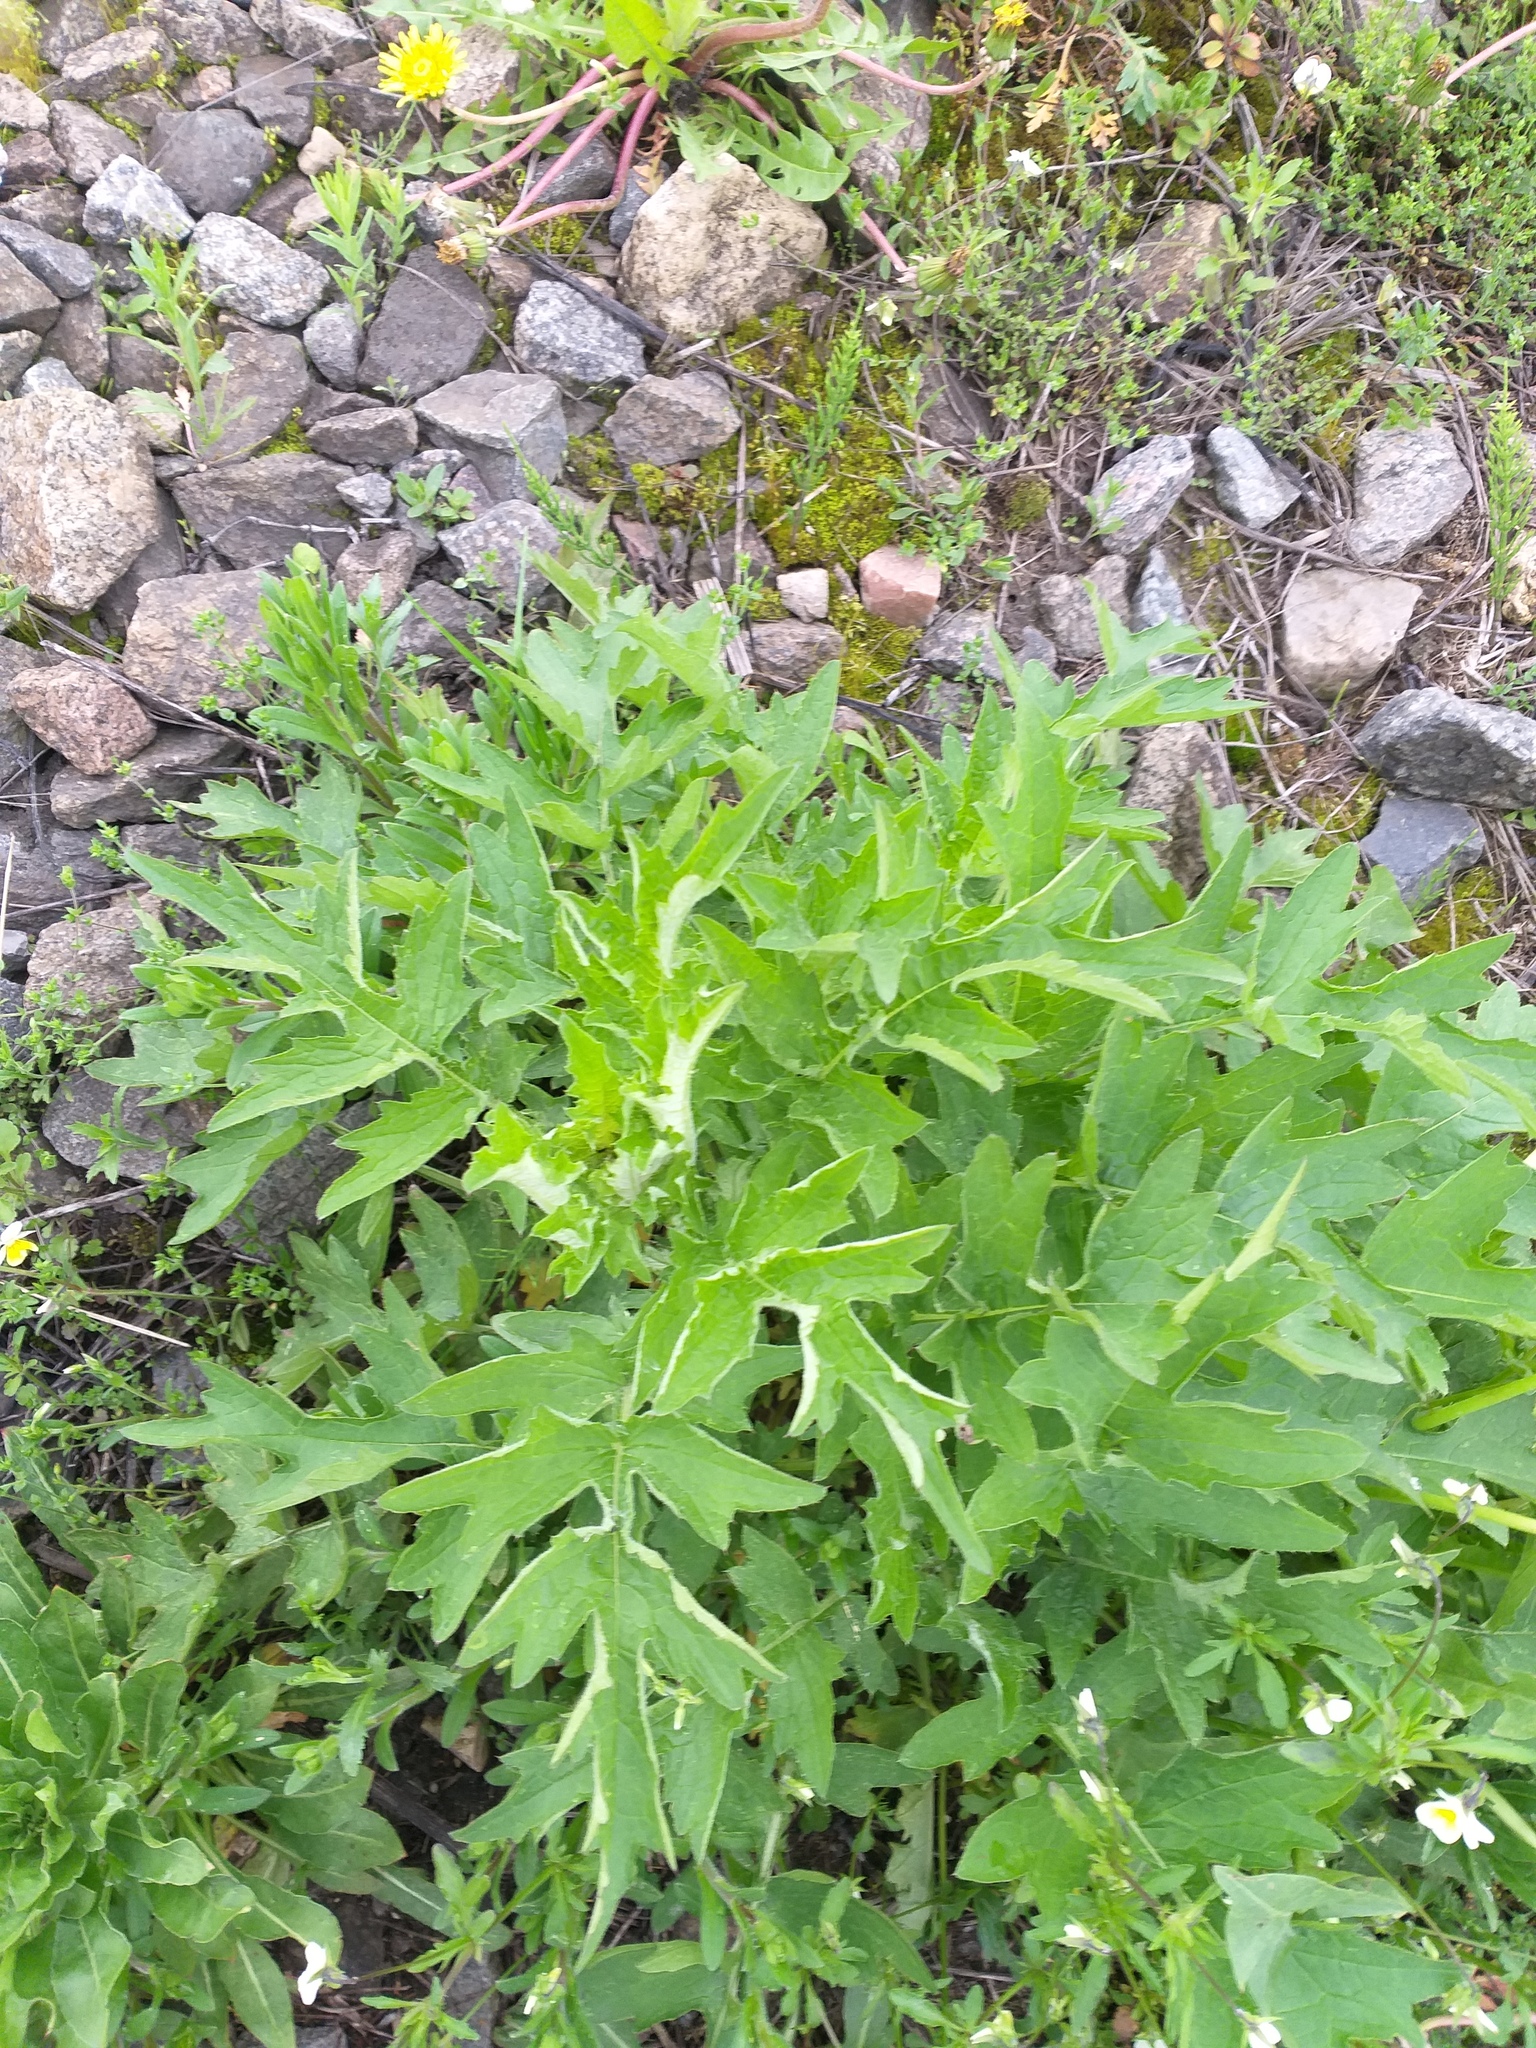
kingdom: Plantae
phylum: Tracheophyta
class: Magnoliopsida
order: Asterales
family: Asteraceae
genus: Carduus
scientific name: Carduus crispus
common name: Welted thistle
